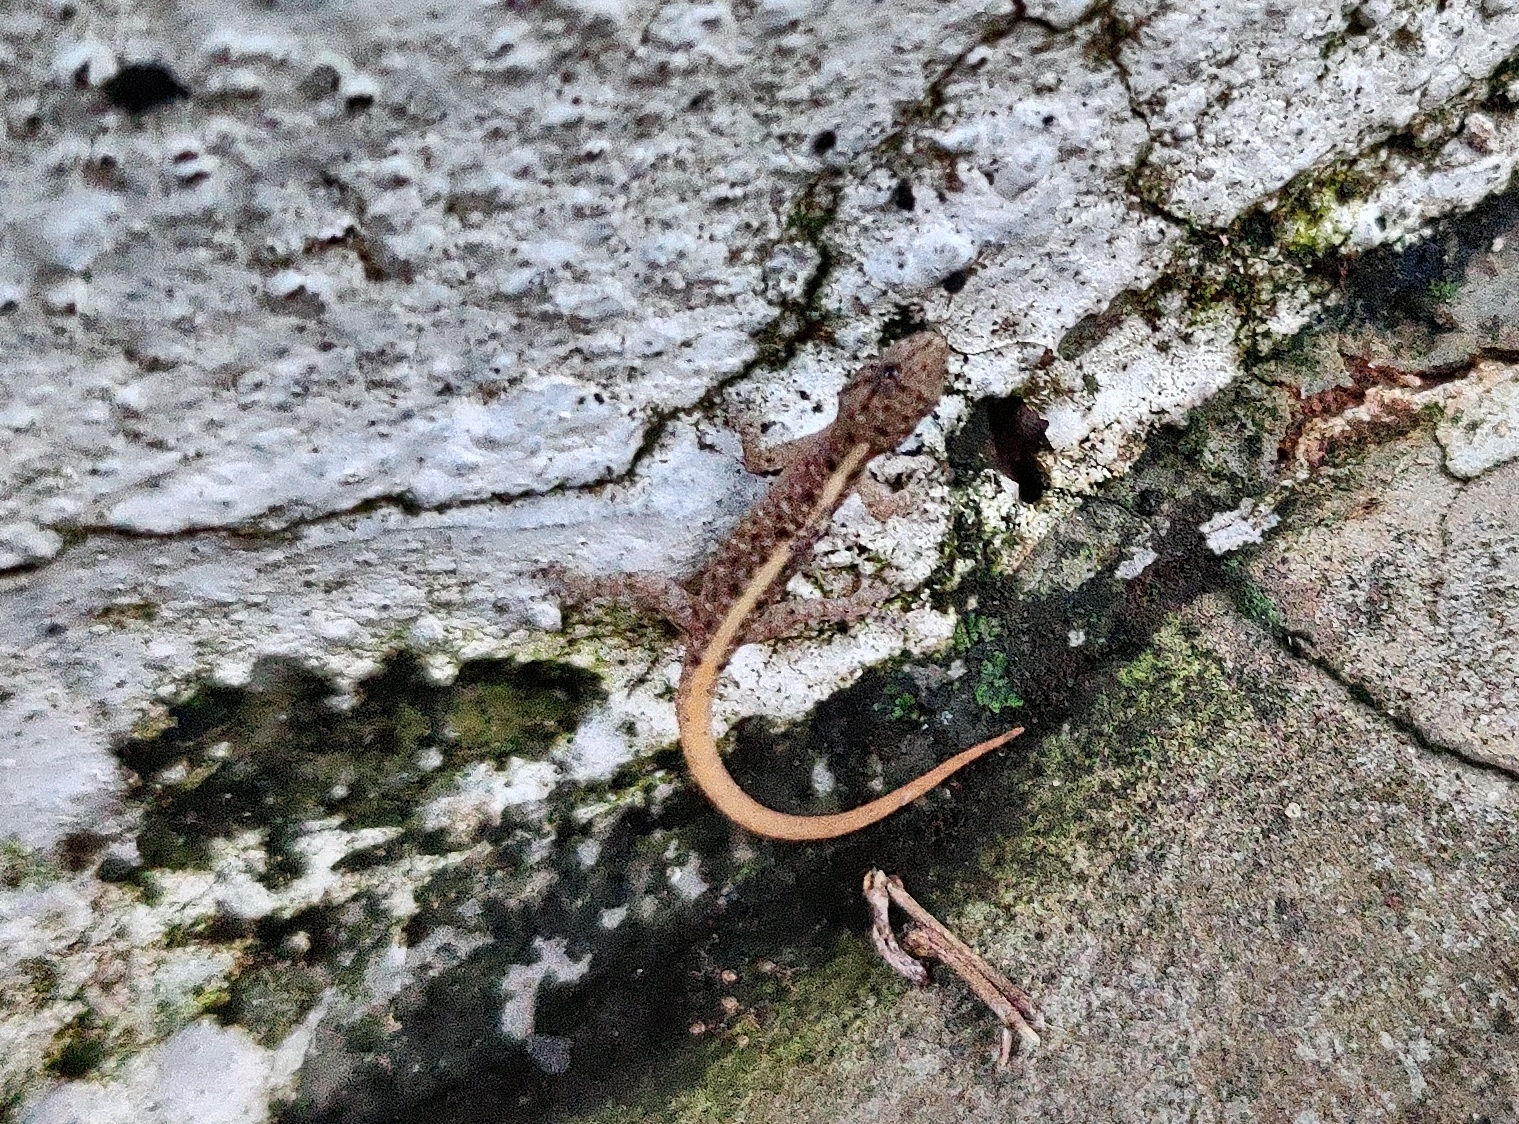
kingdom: Animalia
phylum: Chordata
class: Squamata
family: Gekkonidae
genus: Cnemaspis
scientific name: Cnemaspis bangara
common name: Golden banded dwarf gecko
